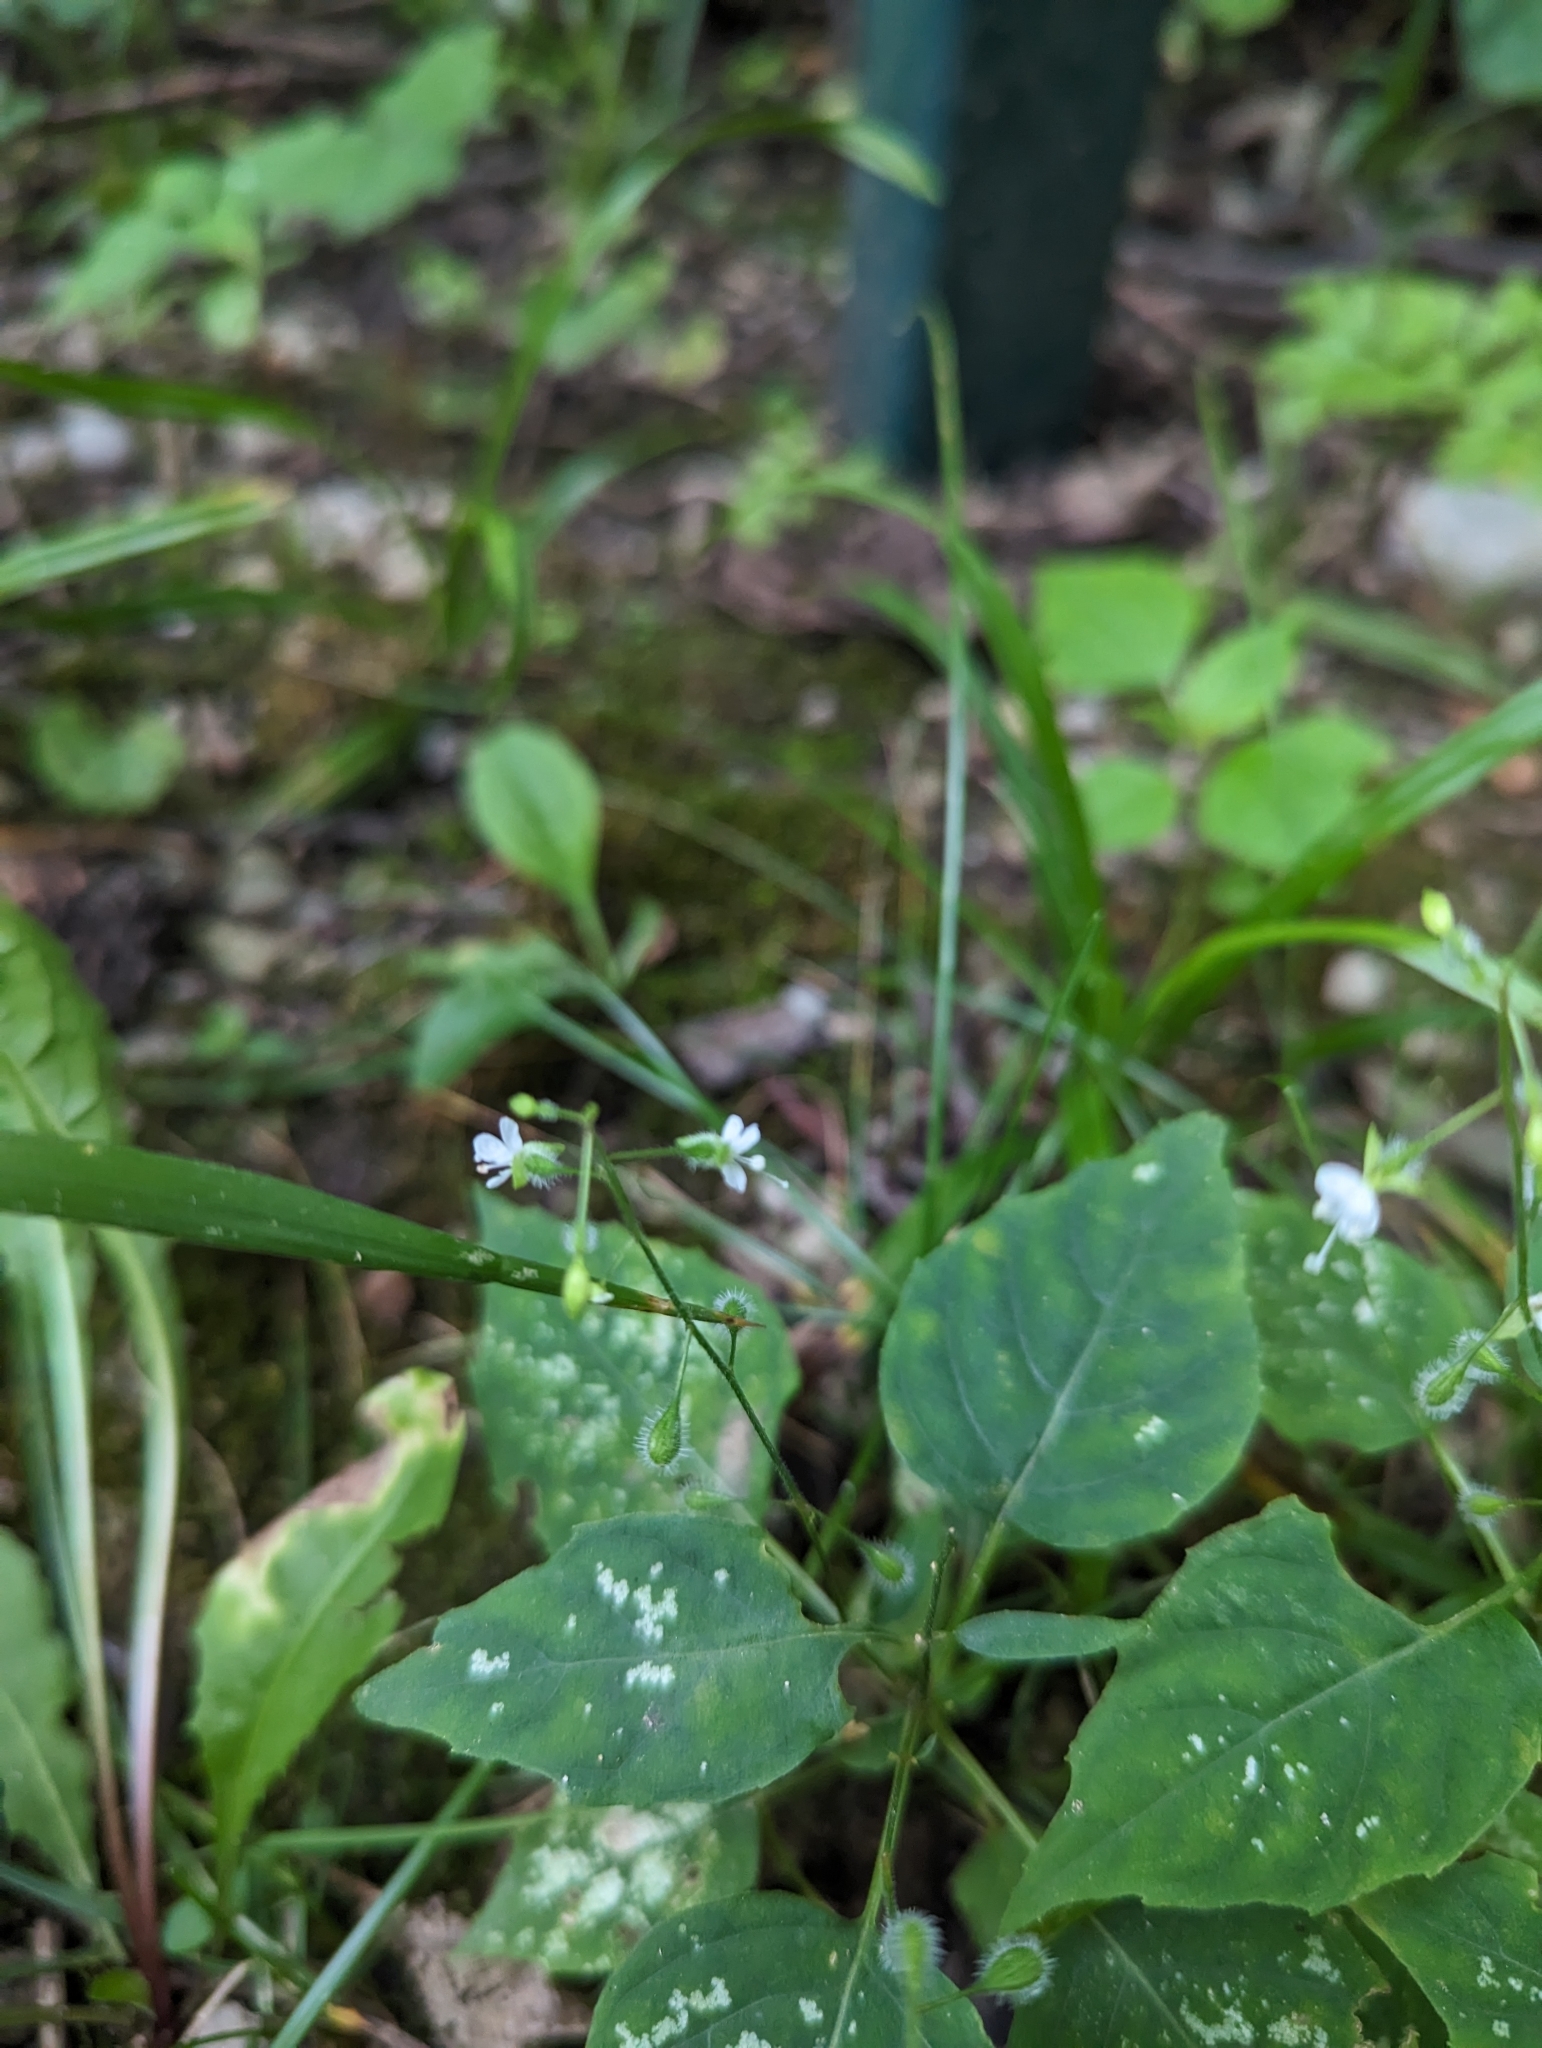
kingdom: Plantae
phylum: Tracheophyta
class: Magnoliopsida
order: Myrtales
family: Onagraceae
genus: Circaea
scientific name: Circaea canadensis
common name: Broad-leaved enchanter's nightshade
